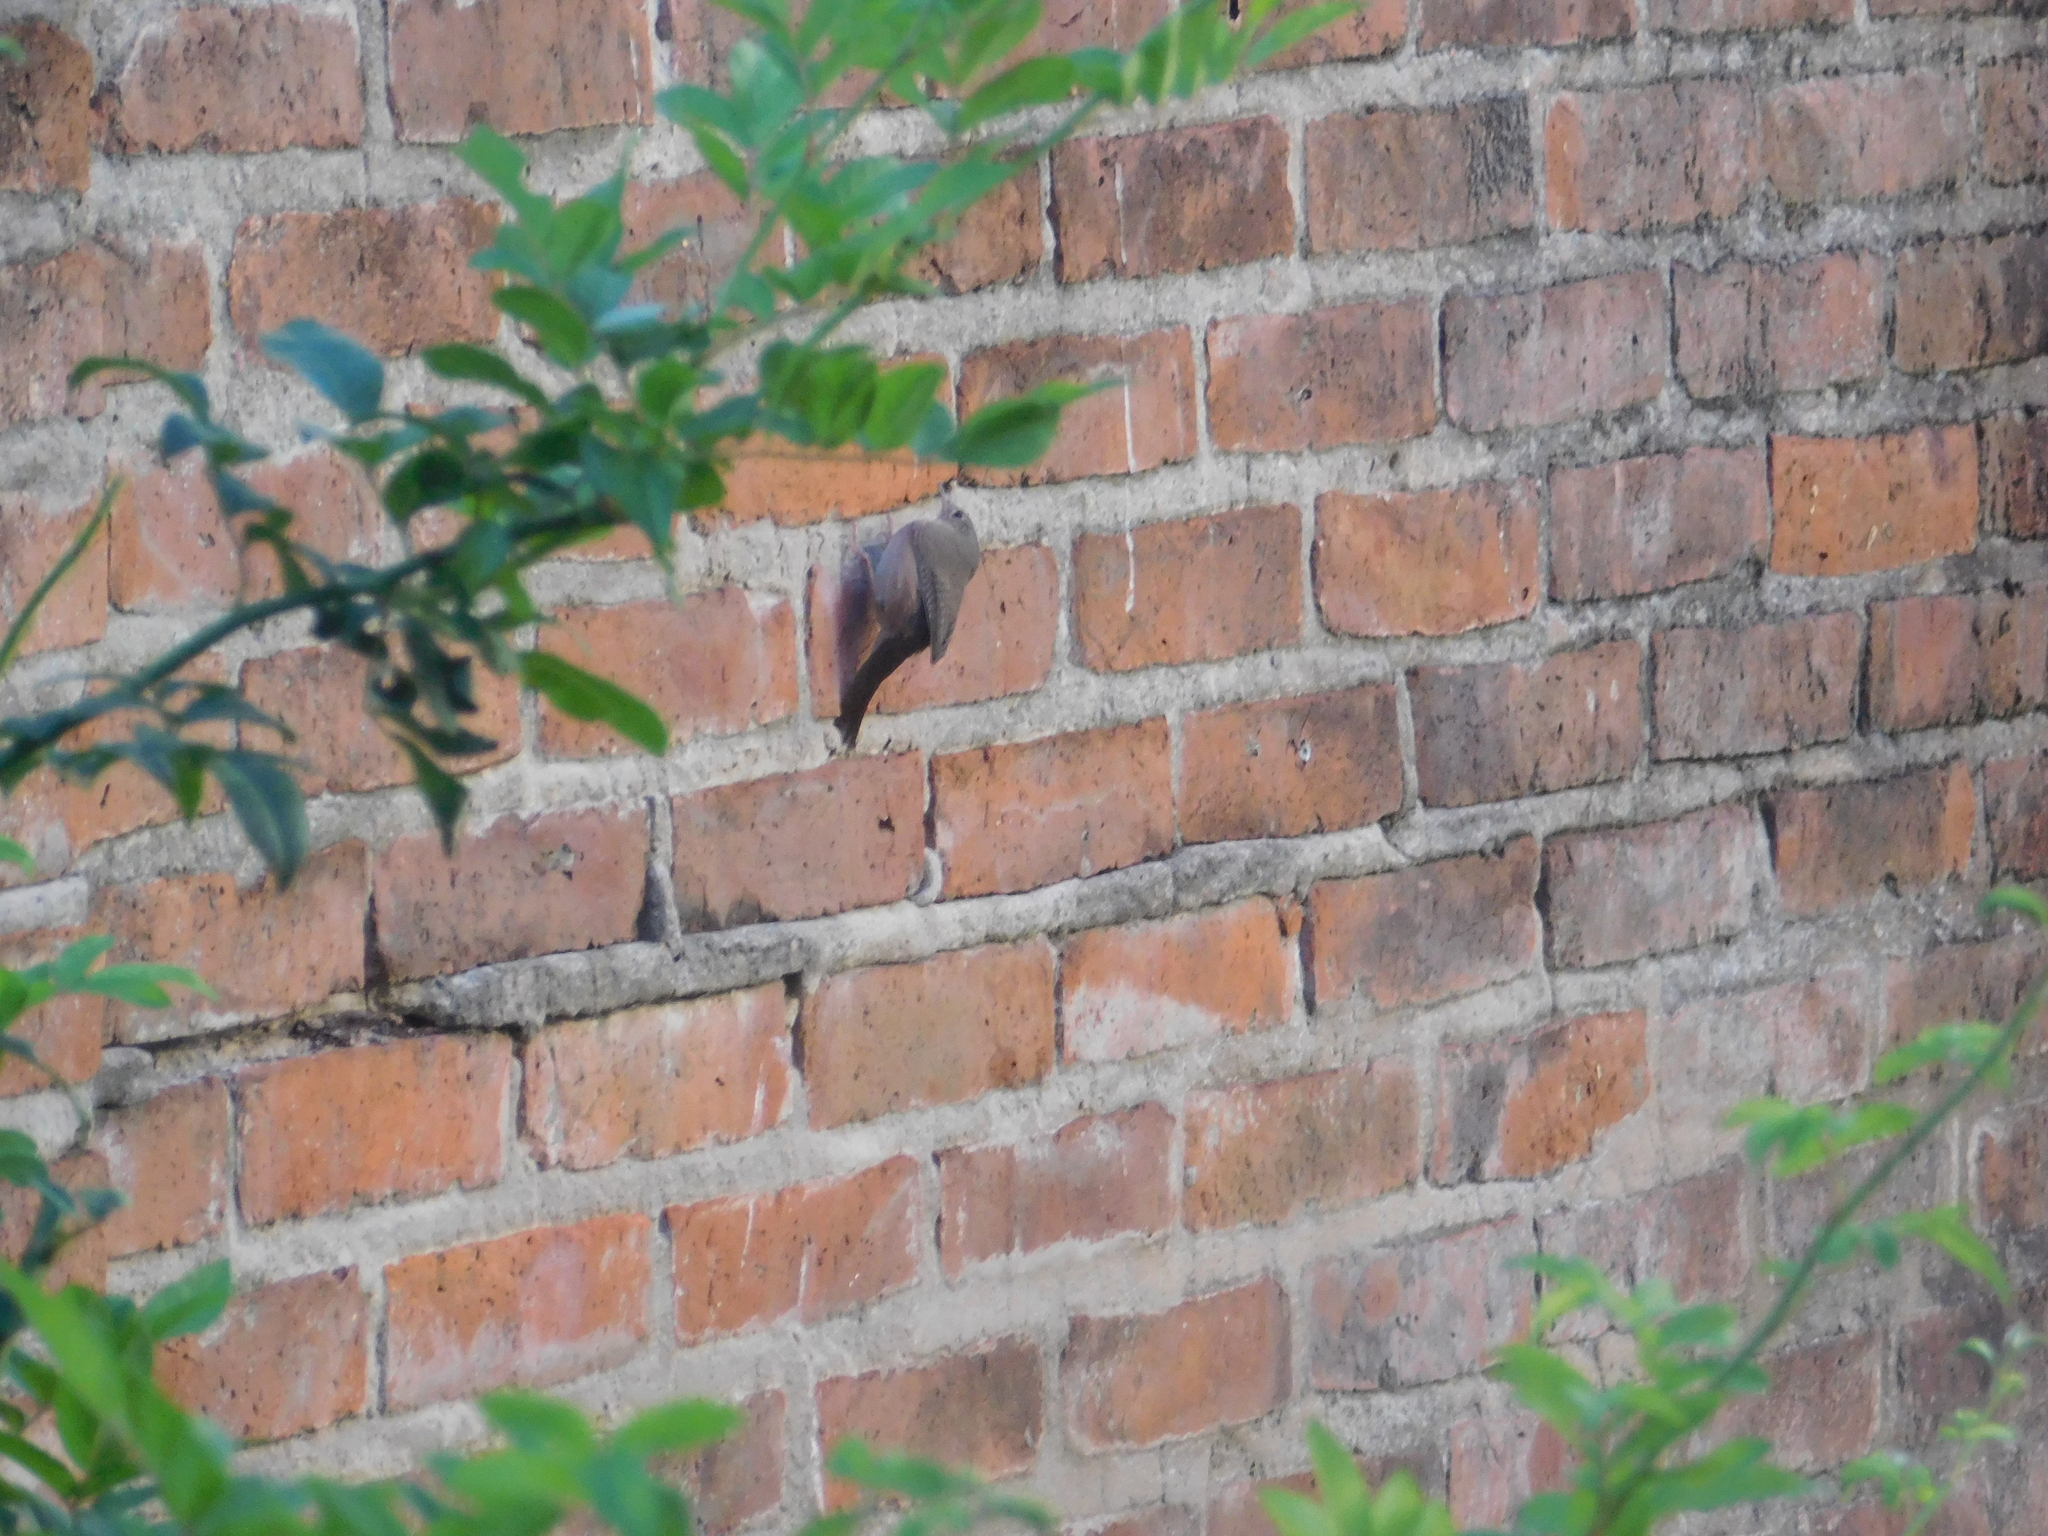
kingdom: Animalia
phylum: Chordata
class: Aves
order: Passeriformes
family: Troglodytidae
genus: Troglodytes
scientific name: Troglodytes aedon
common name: House wren
